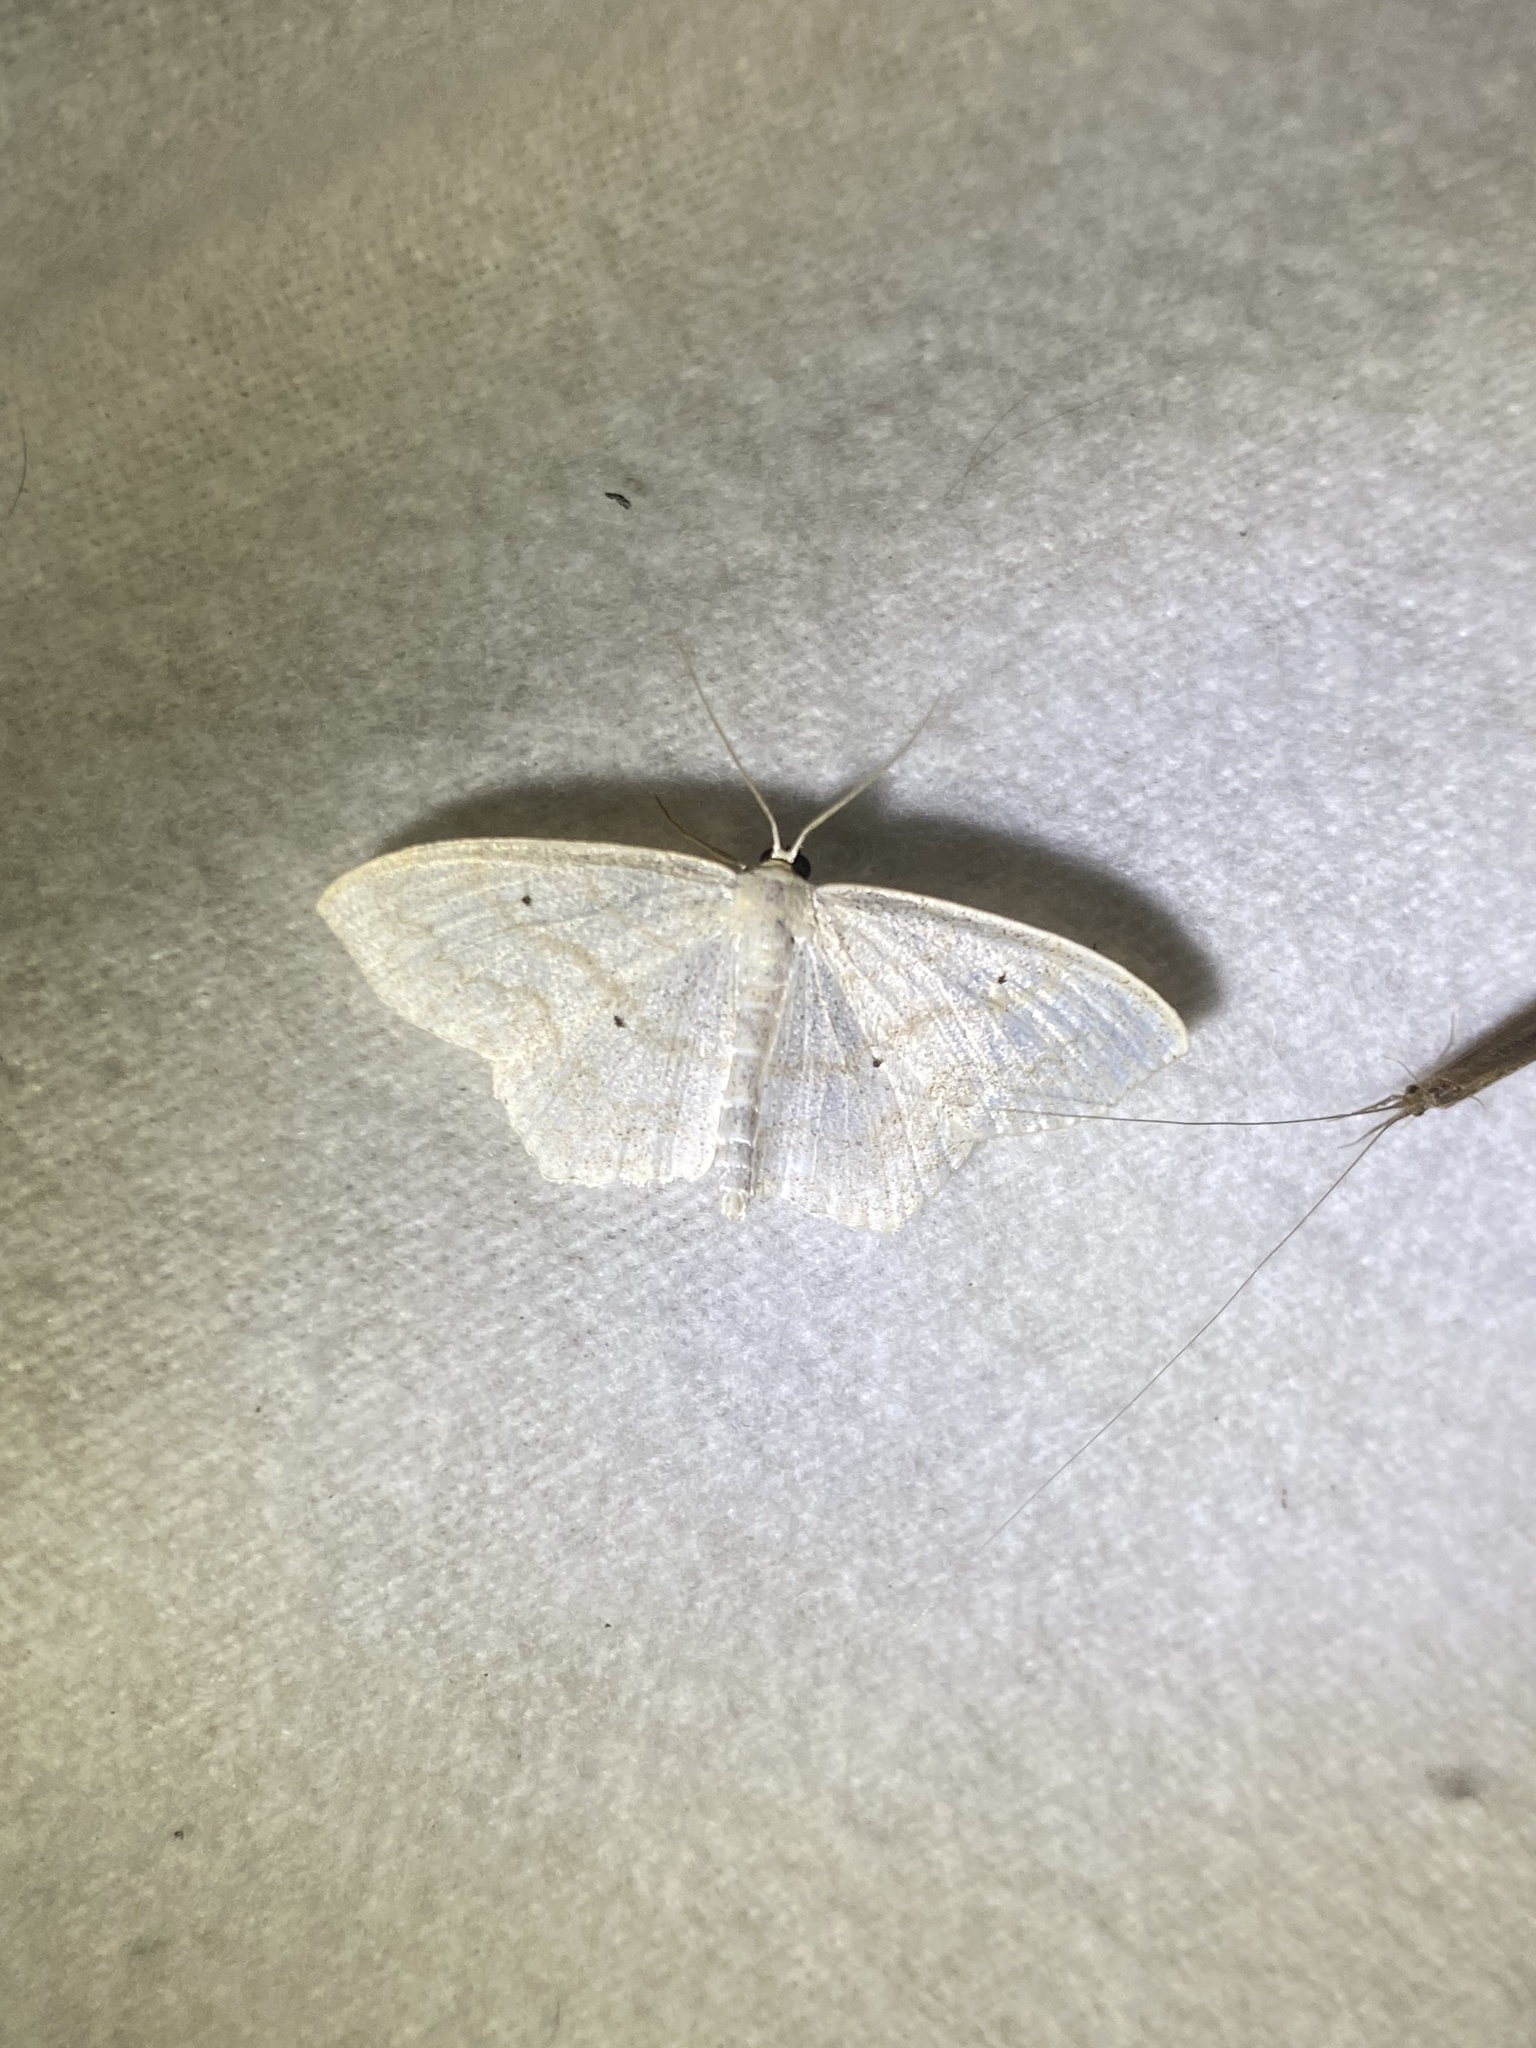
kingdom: Animalia
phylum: Arthropoda
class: Insecta
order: Lepidoptera
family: Geometridae
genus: Scopula
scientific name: Scopula limboundata
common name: Large lace border
